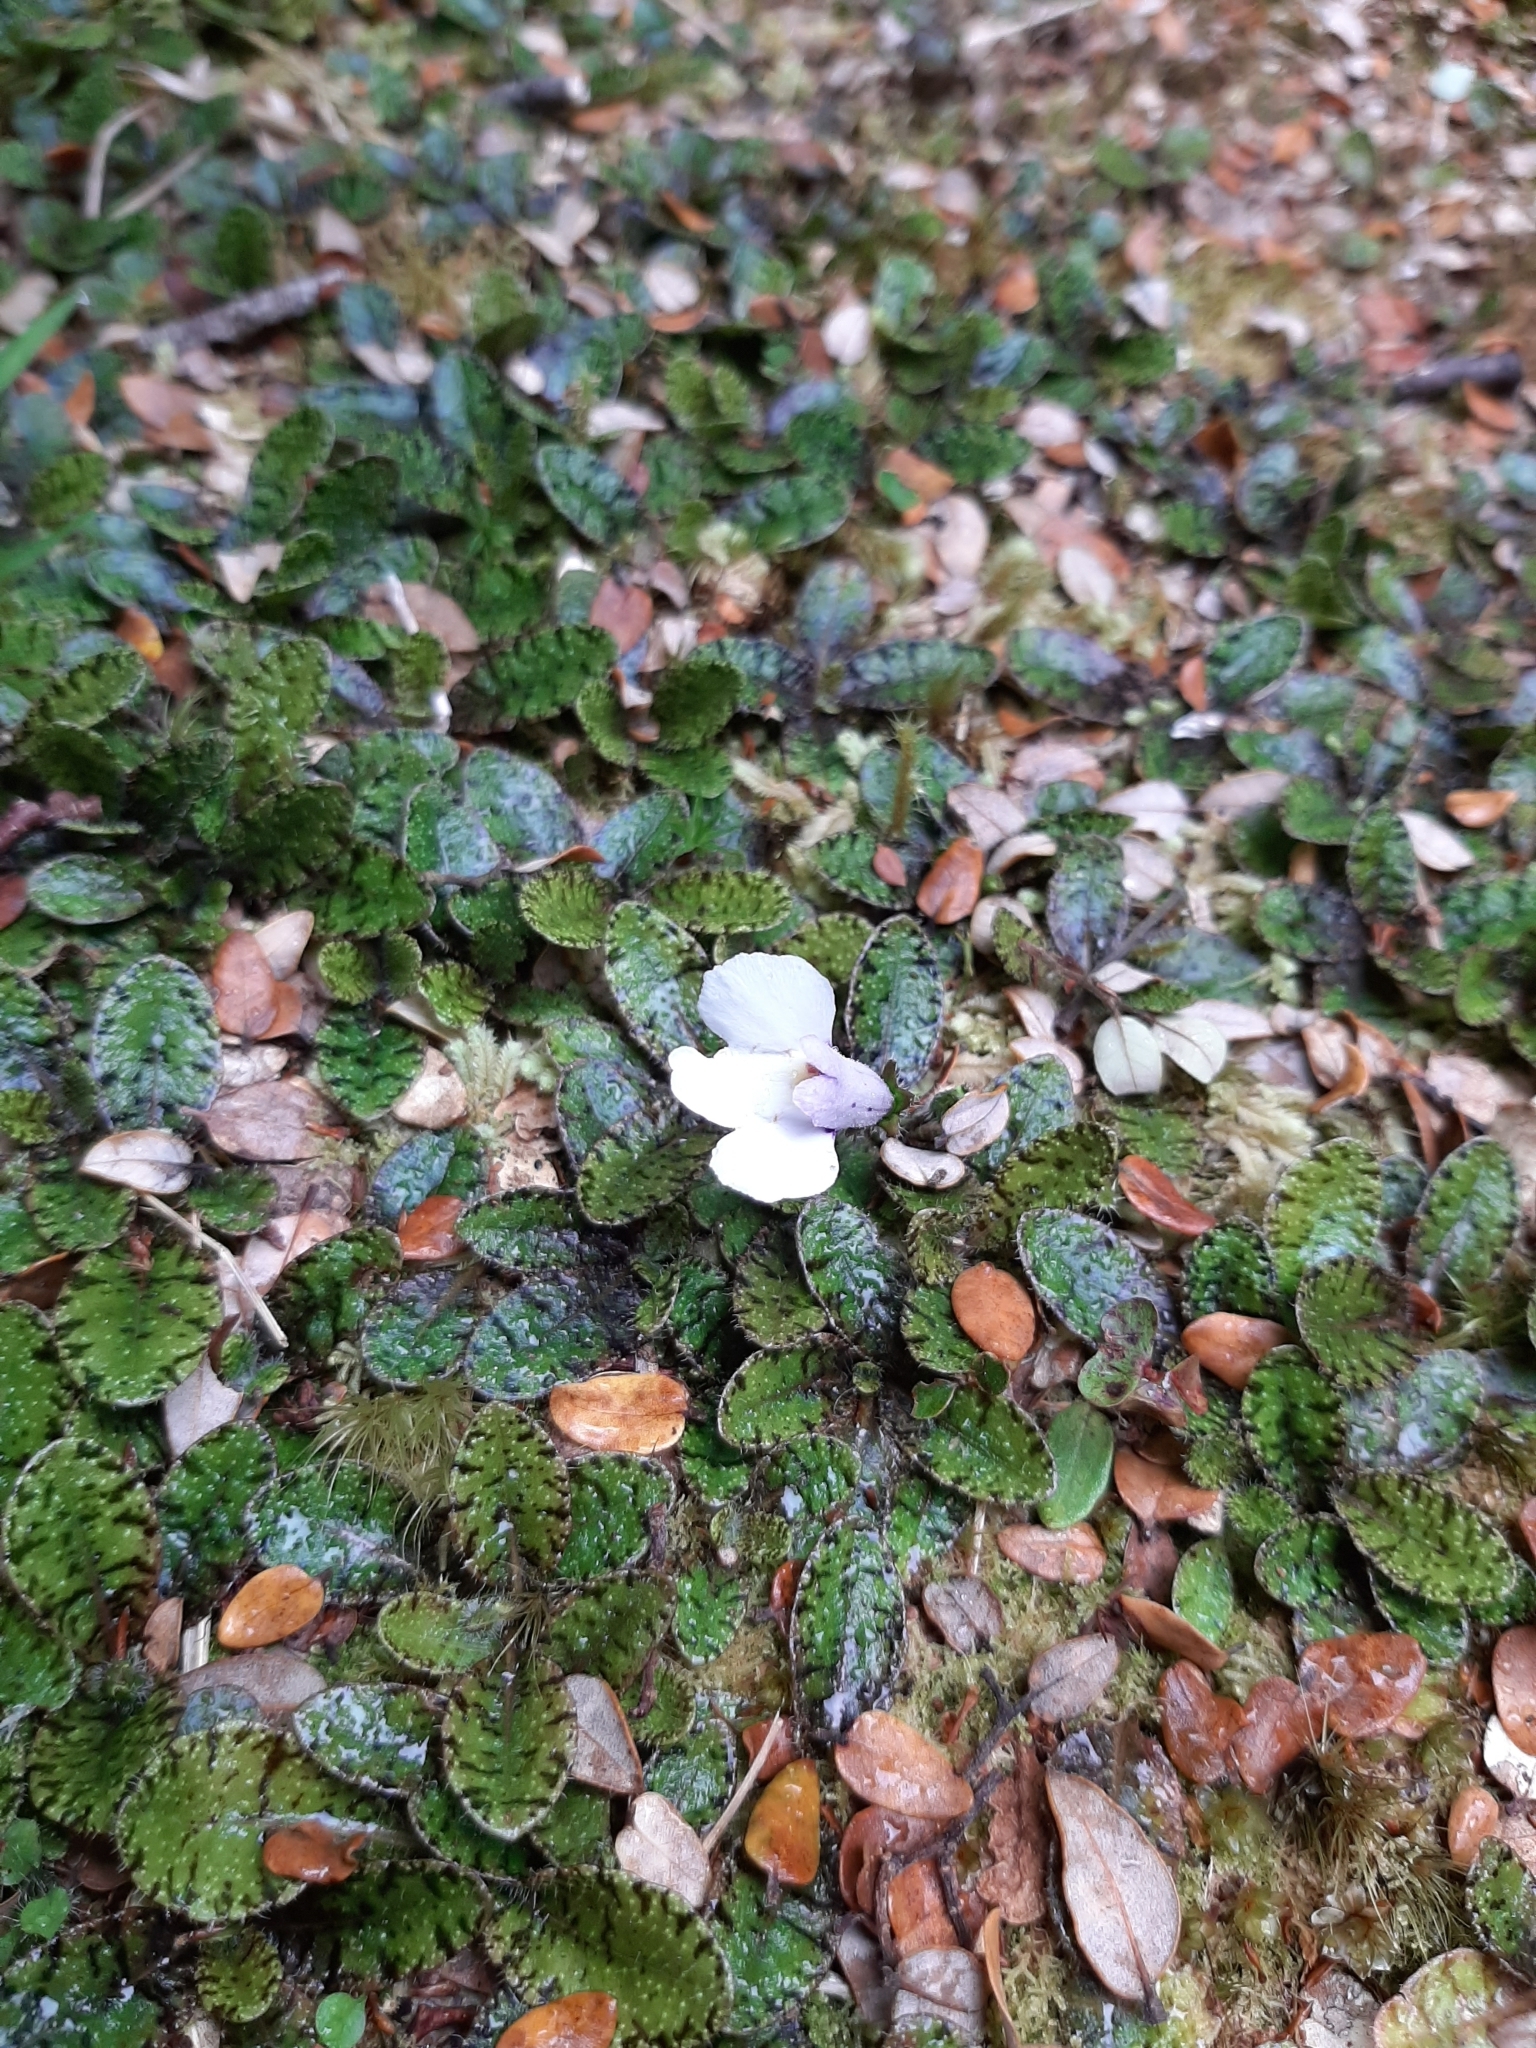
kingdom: Plantae
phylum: Tracheophyta
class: Magnoliopsida
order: Lamiales
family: Mazaceae
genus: Mazus
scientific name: Mazus radicans
